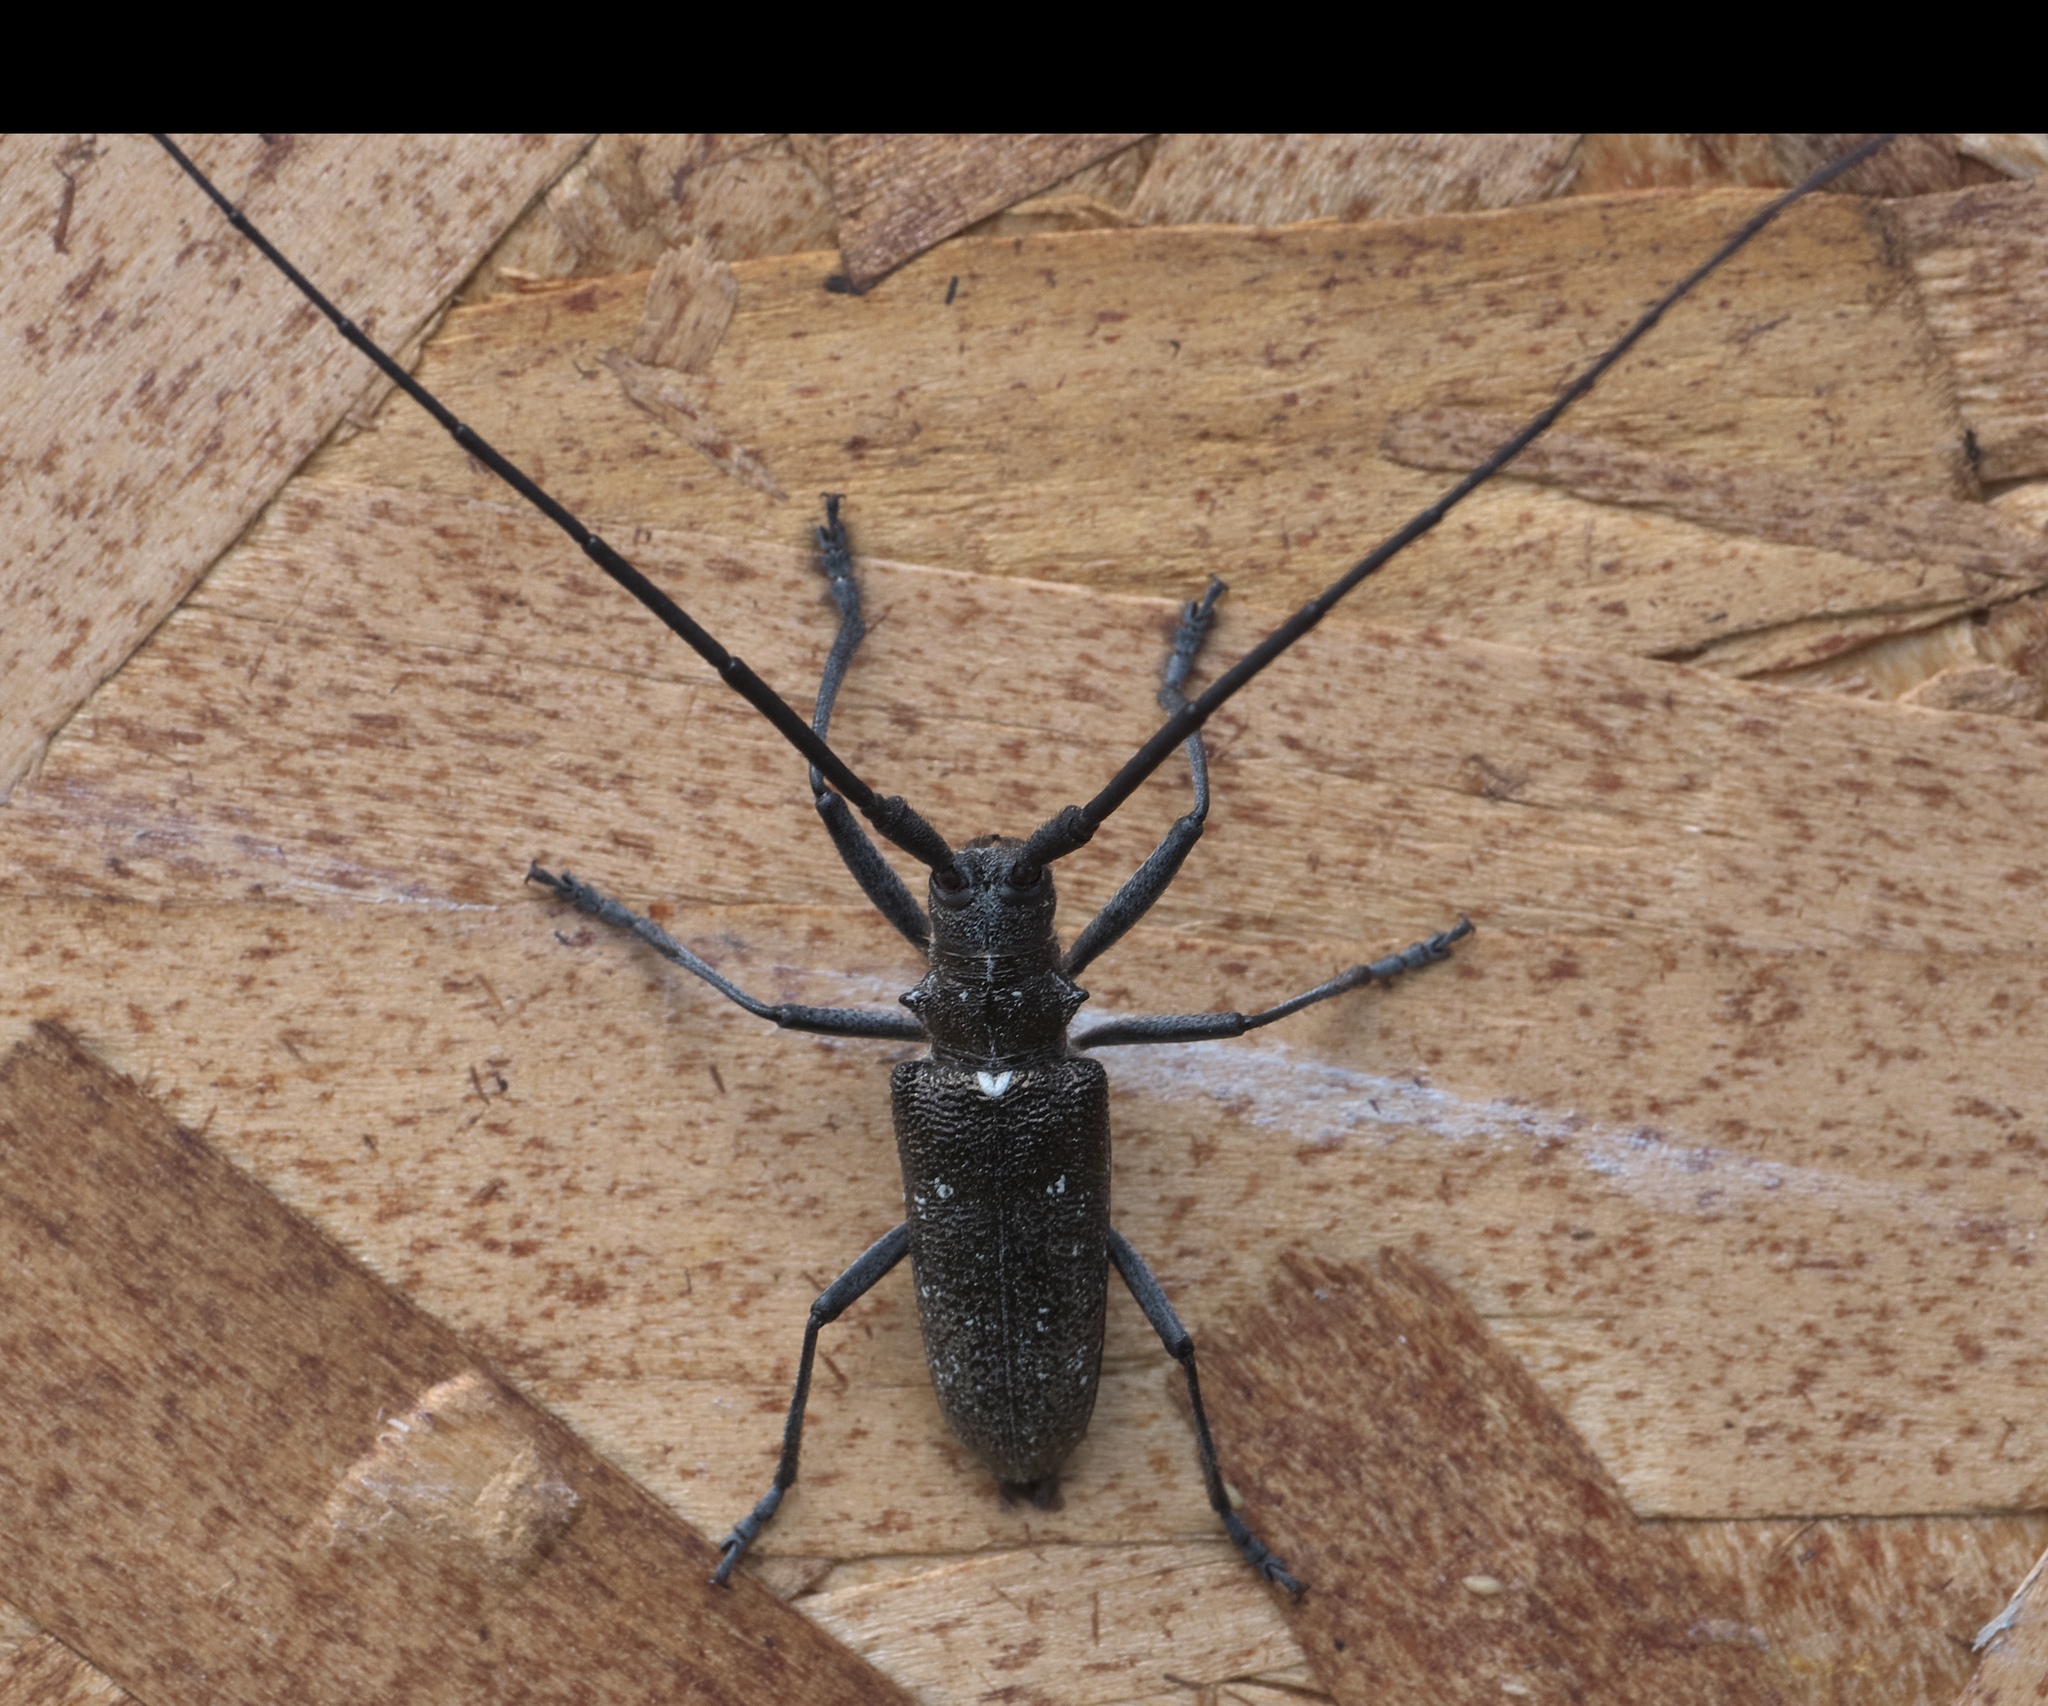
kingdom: Animalia
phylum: Arthropoda
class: Insecta
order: Coleoptera
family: Cerambycidae
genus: Monochamus
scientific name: Monochamus scutellatus
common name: White-spotted sawyer beetle
